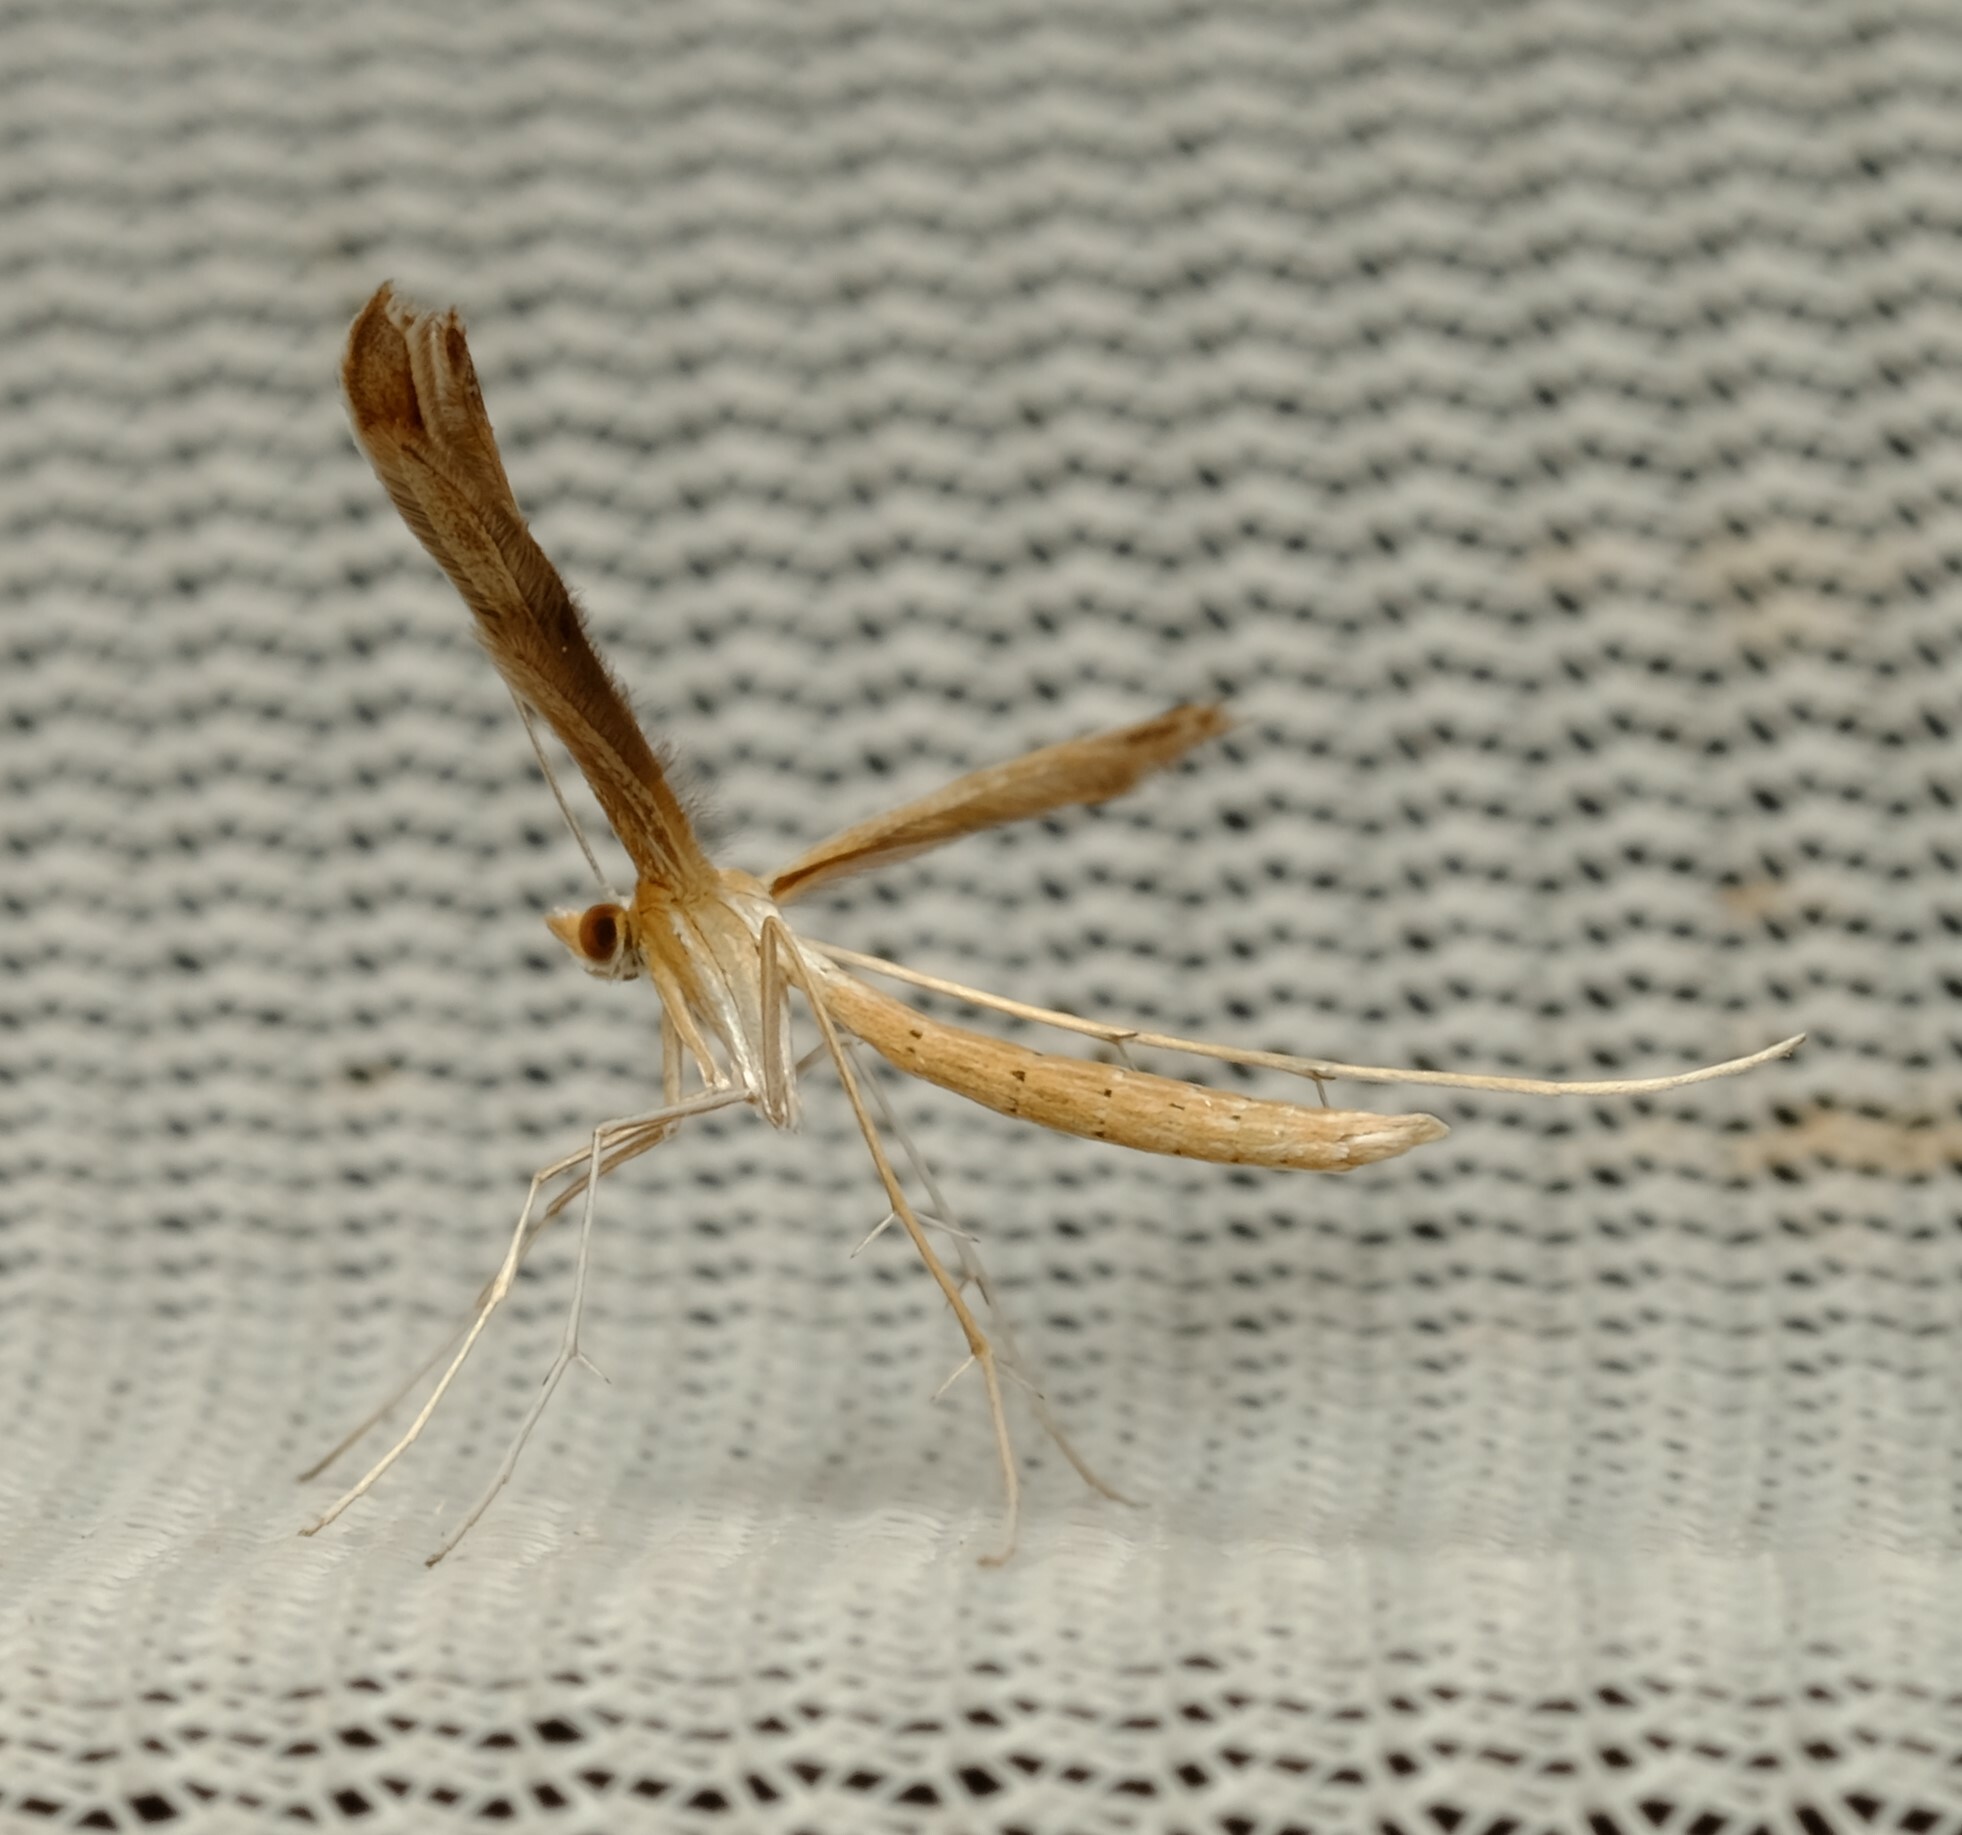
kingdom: Animalia
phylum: Arthropoda
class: Insecta
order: Lepidoptera
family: Pterophoridae
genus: Stenoptilia
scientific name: Stenoptilia zophodactylus
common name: Dowdy plume
